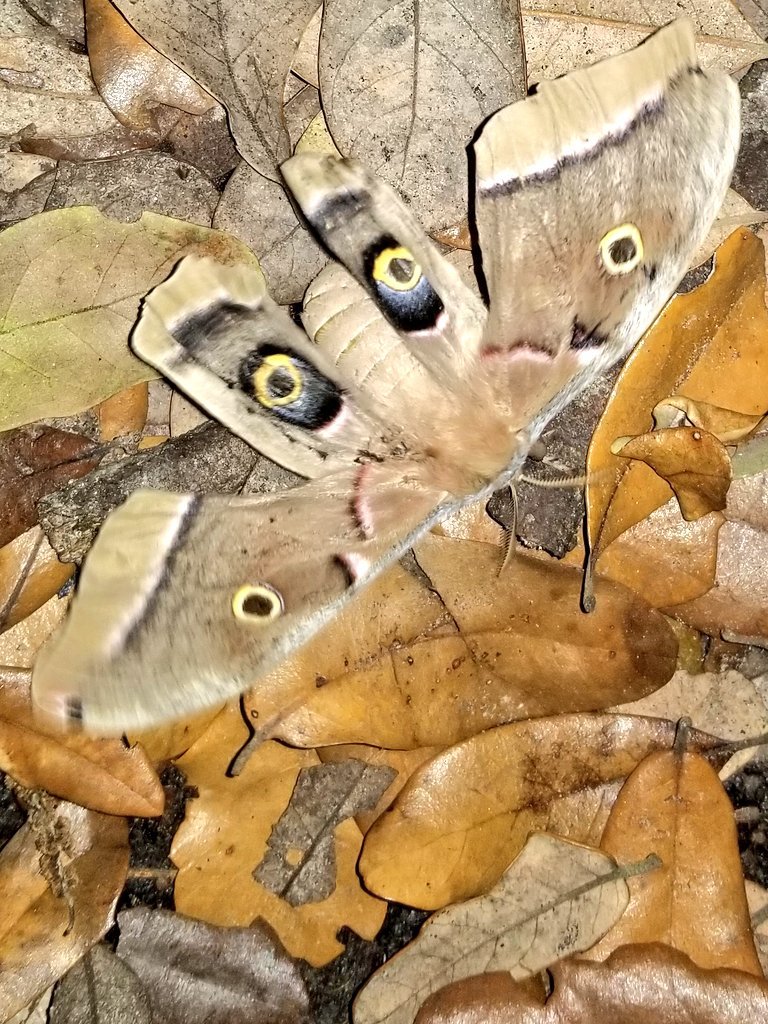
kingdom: Animalia
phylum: Arthropoda
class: Insecta
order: Lepidoptera
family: Saturniidae
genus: Antheraea
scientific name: Antheraea polyphemus
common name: Polyphemus moth
